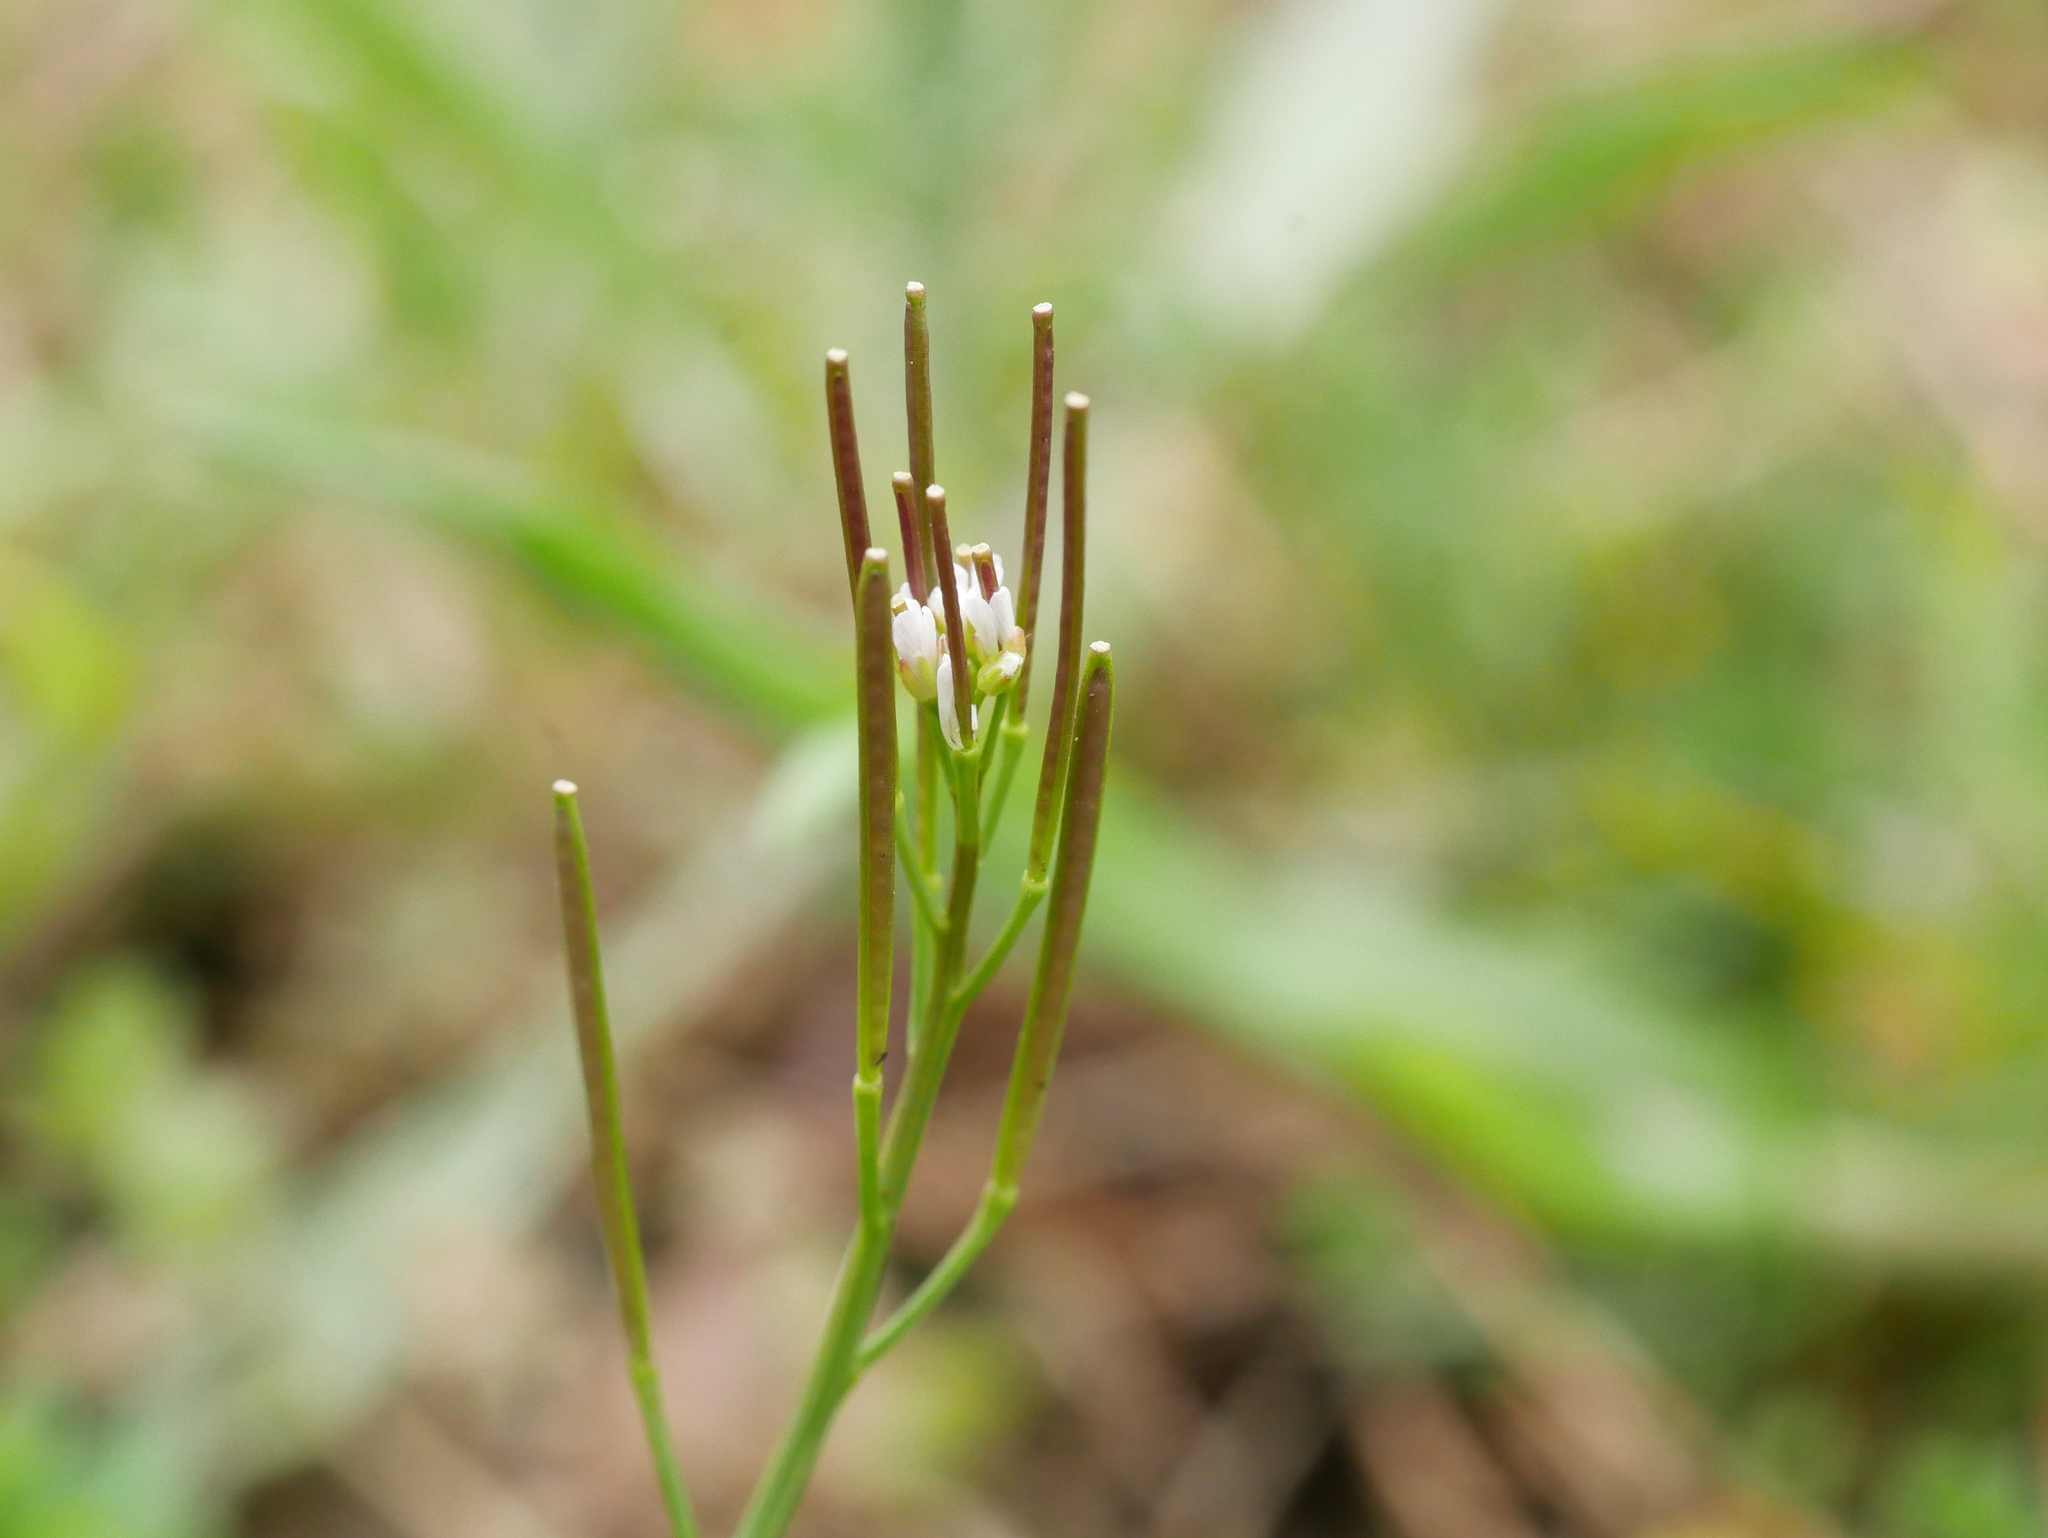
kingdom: Plantae
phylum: Tracheophyta
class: Magnoliopsida
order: Brassicales
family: Brassicaceae
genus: Cardamine
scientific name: Cardamine hirsuta
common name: Hairy bittercress
